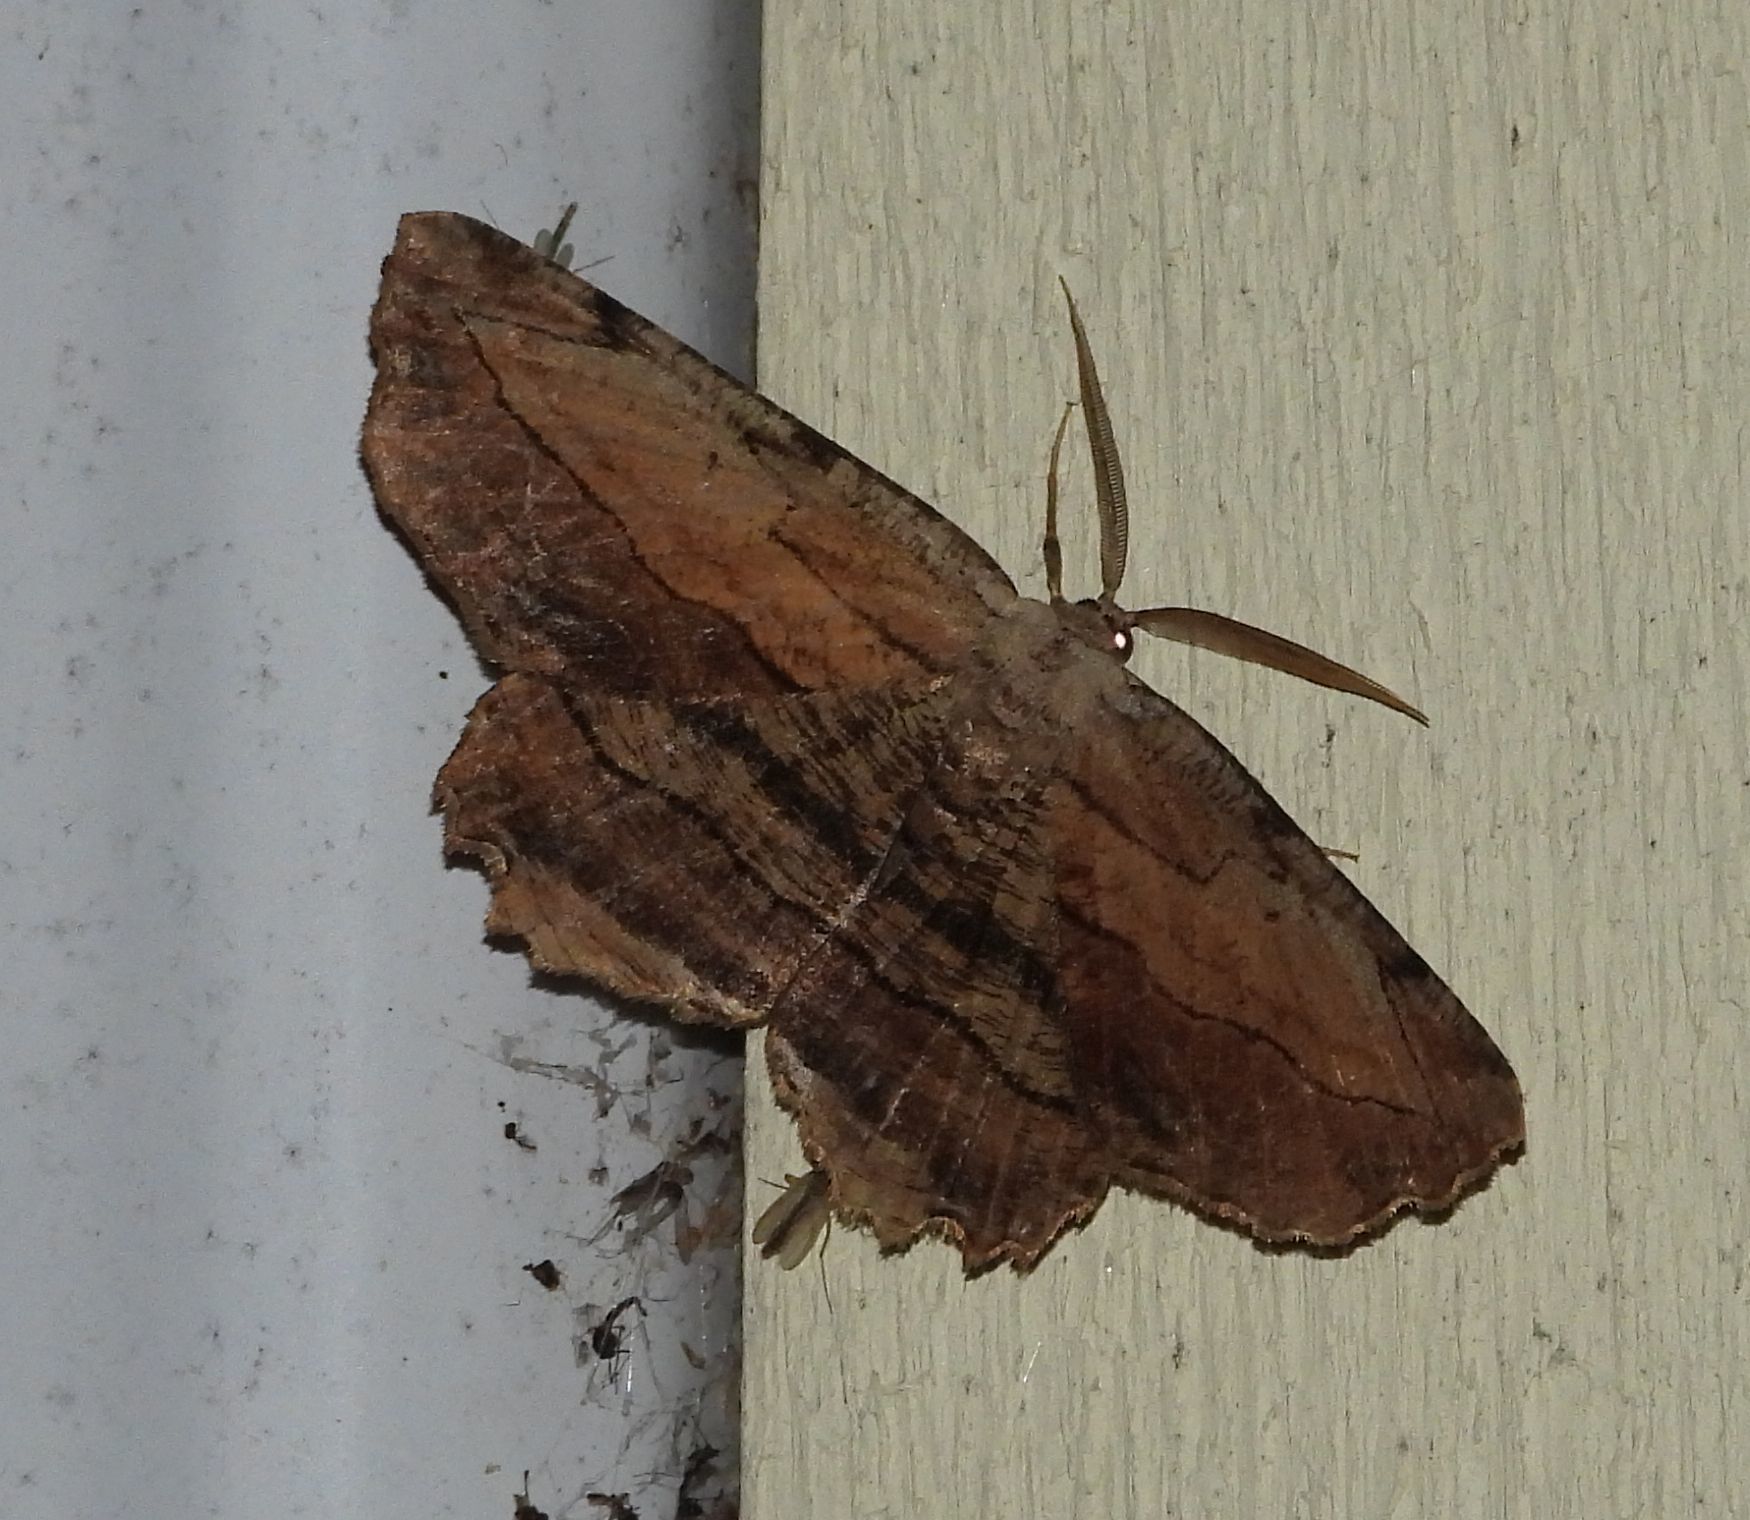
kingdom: Animalia
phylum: Arthropoda
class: Insecta
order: Lepidoptera
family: Geometridae
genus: Lytrosis
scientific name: Lytrosis unitaria
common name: Common lytrosis
